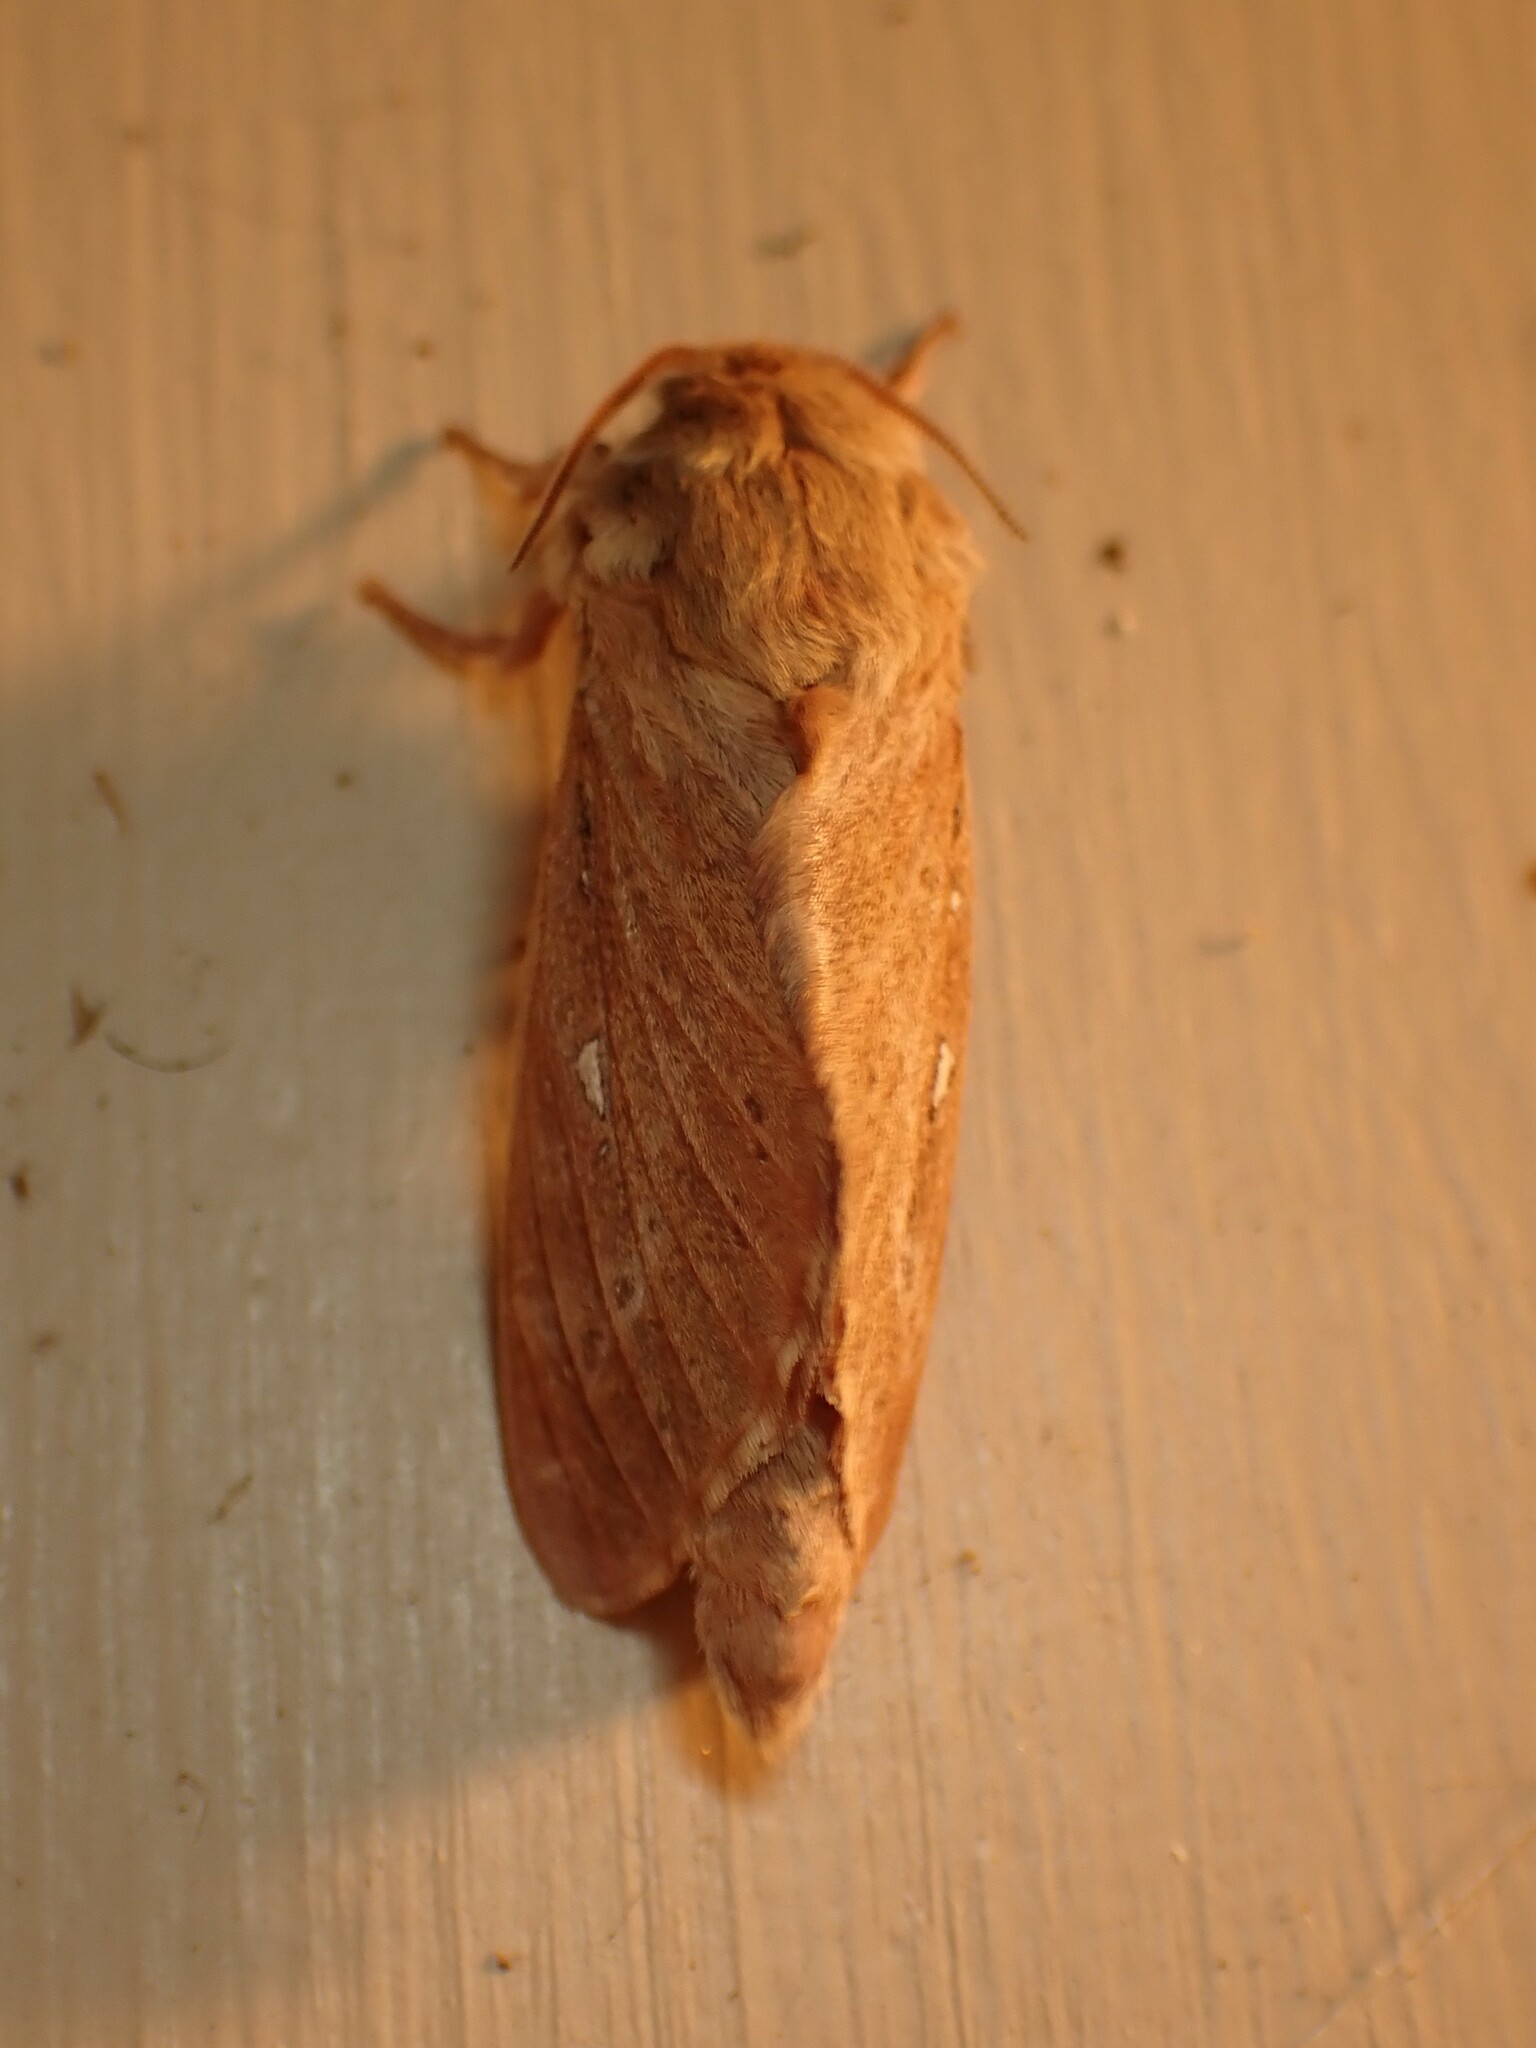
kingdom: Animalia
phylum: Arthropoda
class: Insecta
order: Lepidoptera
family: Hepialidae
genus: Wiseana
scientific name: Wiseana copularis
